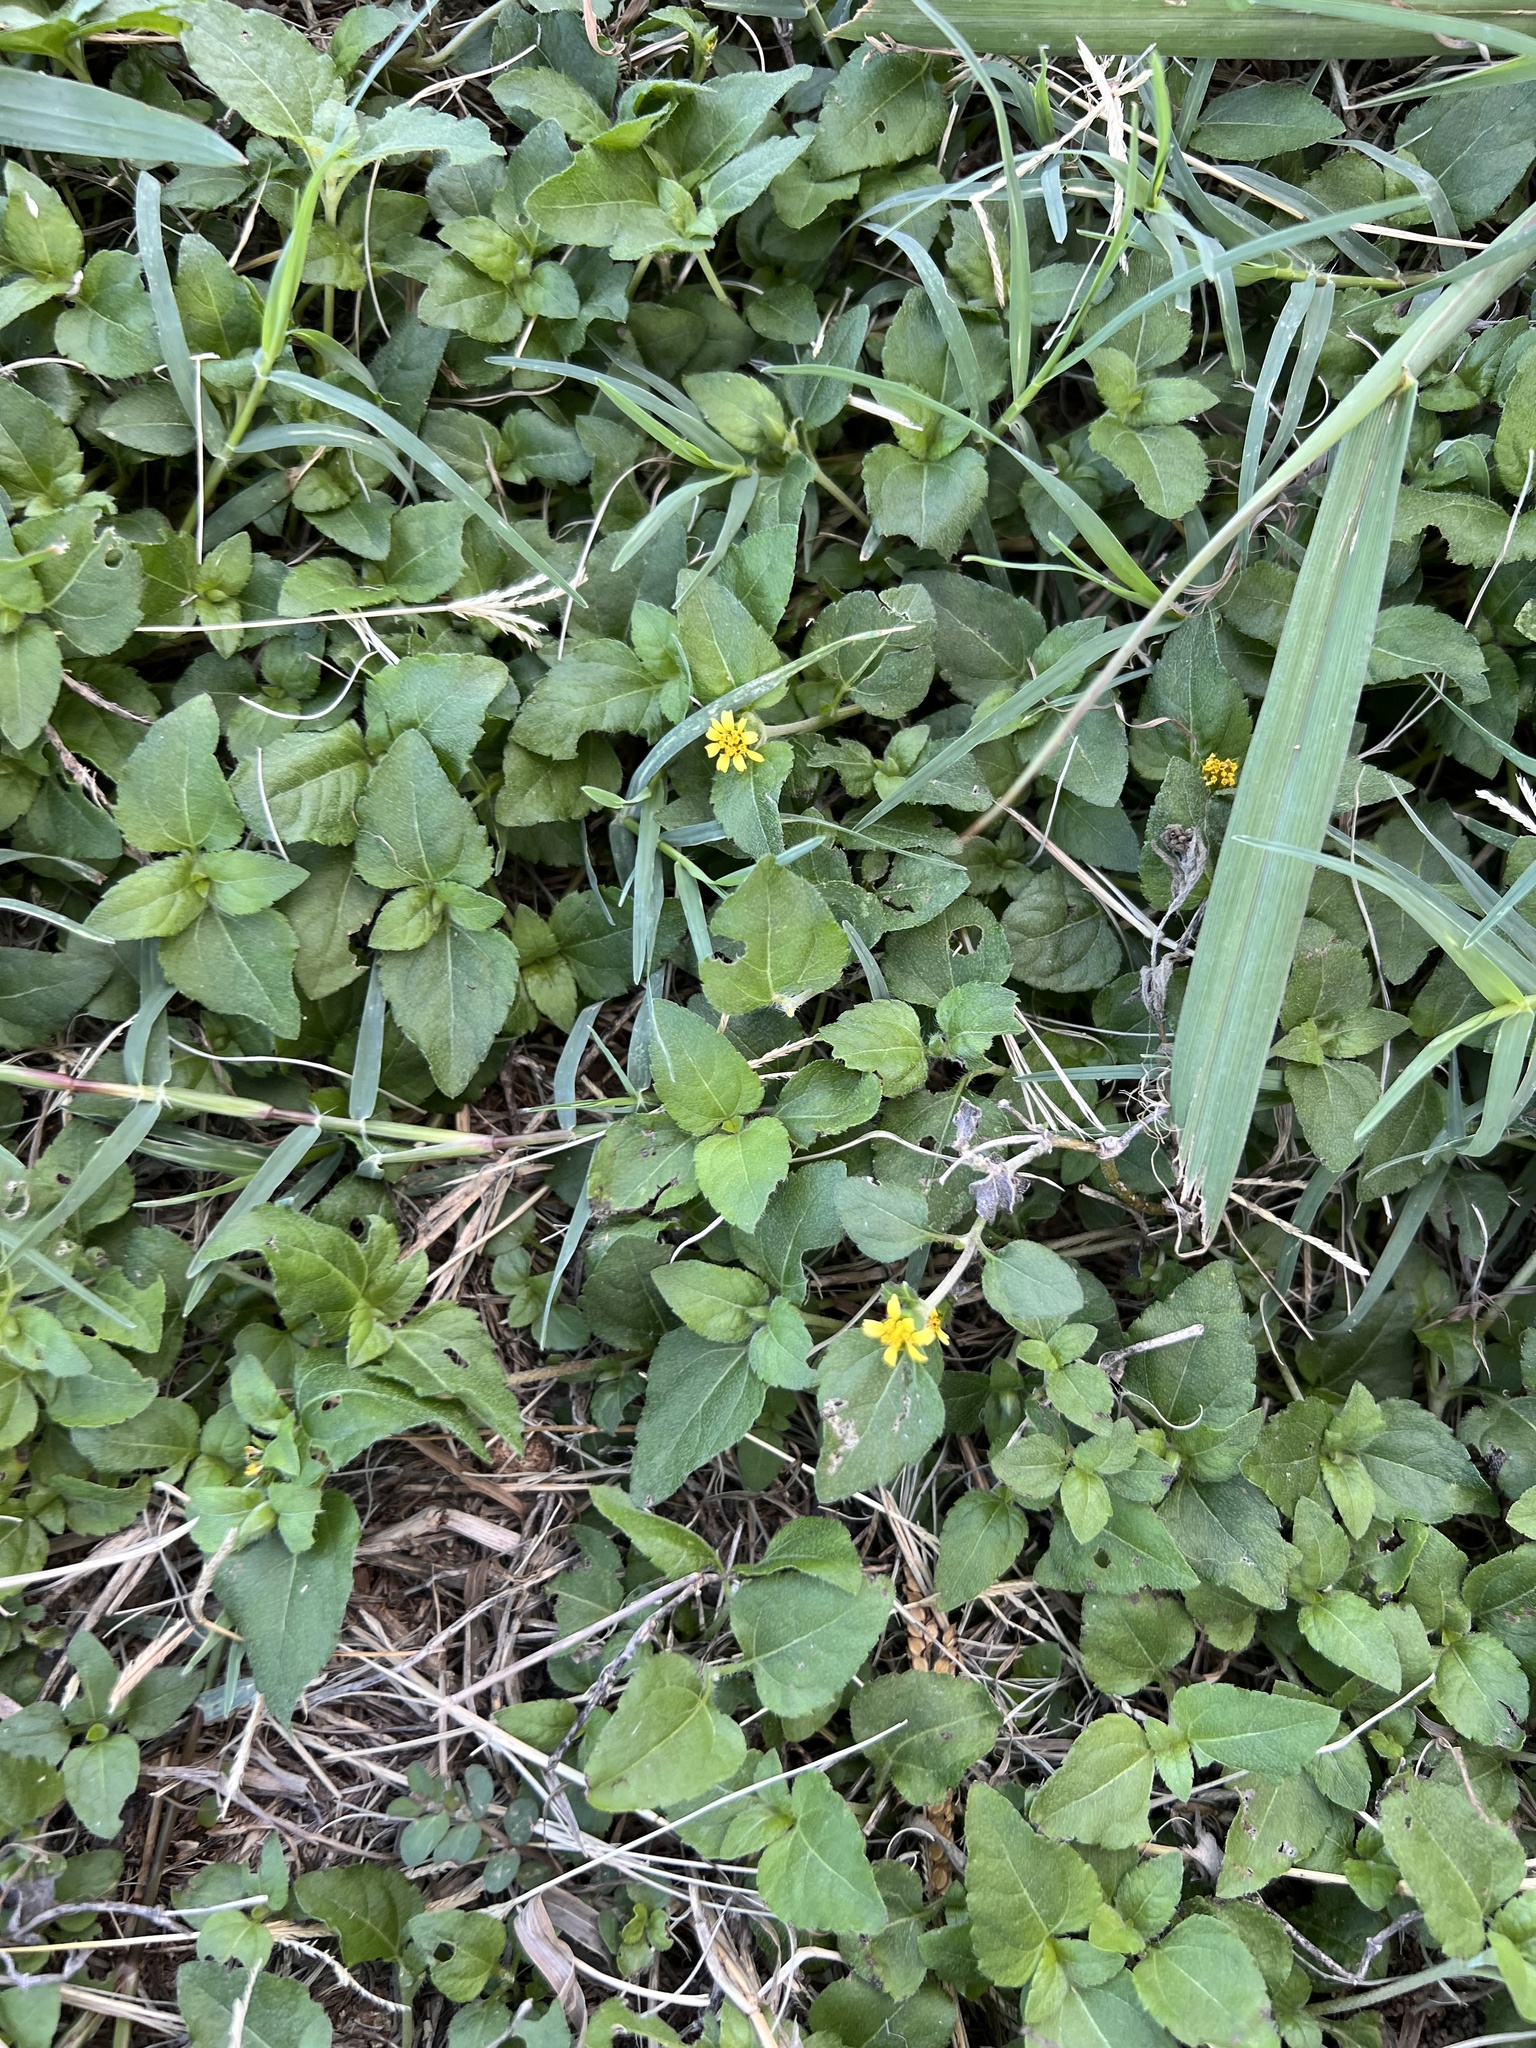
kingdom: Plantae
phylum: Tracheophyta
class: Magnoliopsida
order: Asterales
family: Asteraceae
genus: Calyptocarpus
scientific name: Calyptocarpus vialis
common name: Straggler daisy
